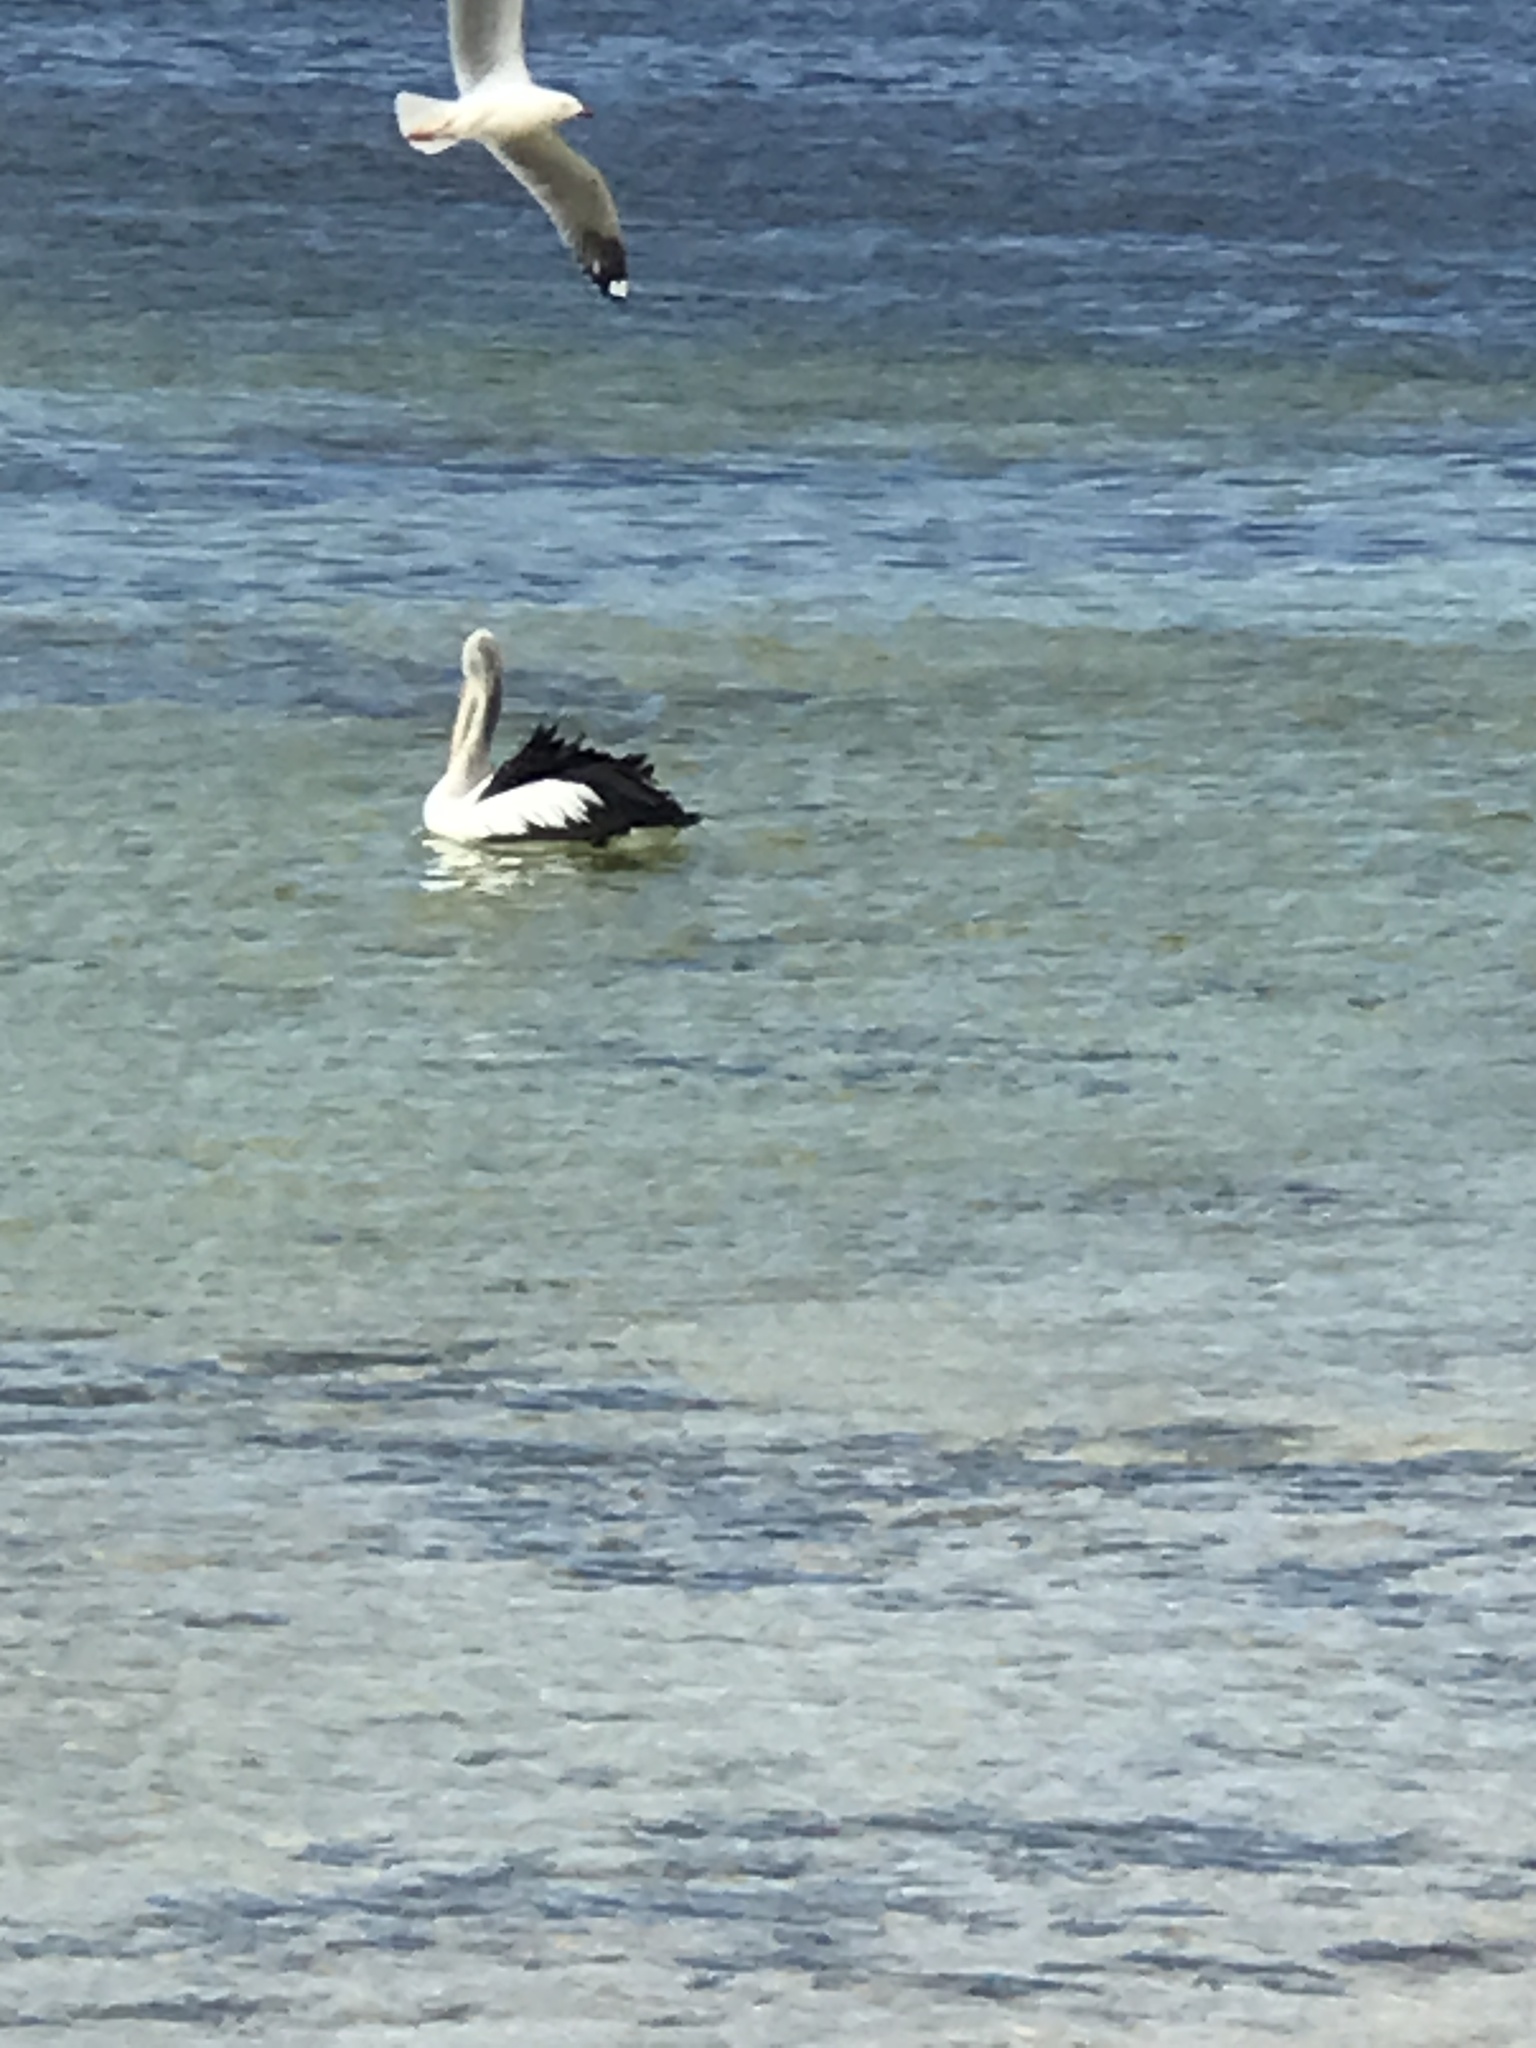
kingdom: Animalia
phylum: Chordata
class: Aves
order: Pelecaniformes
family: Pelecanidae
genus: Pelecanus
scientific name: Pelecanus conspicillatus
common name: Australian pelican
